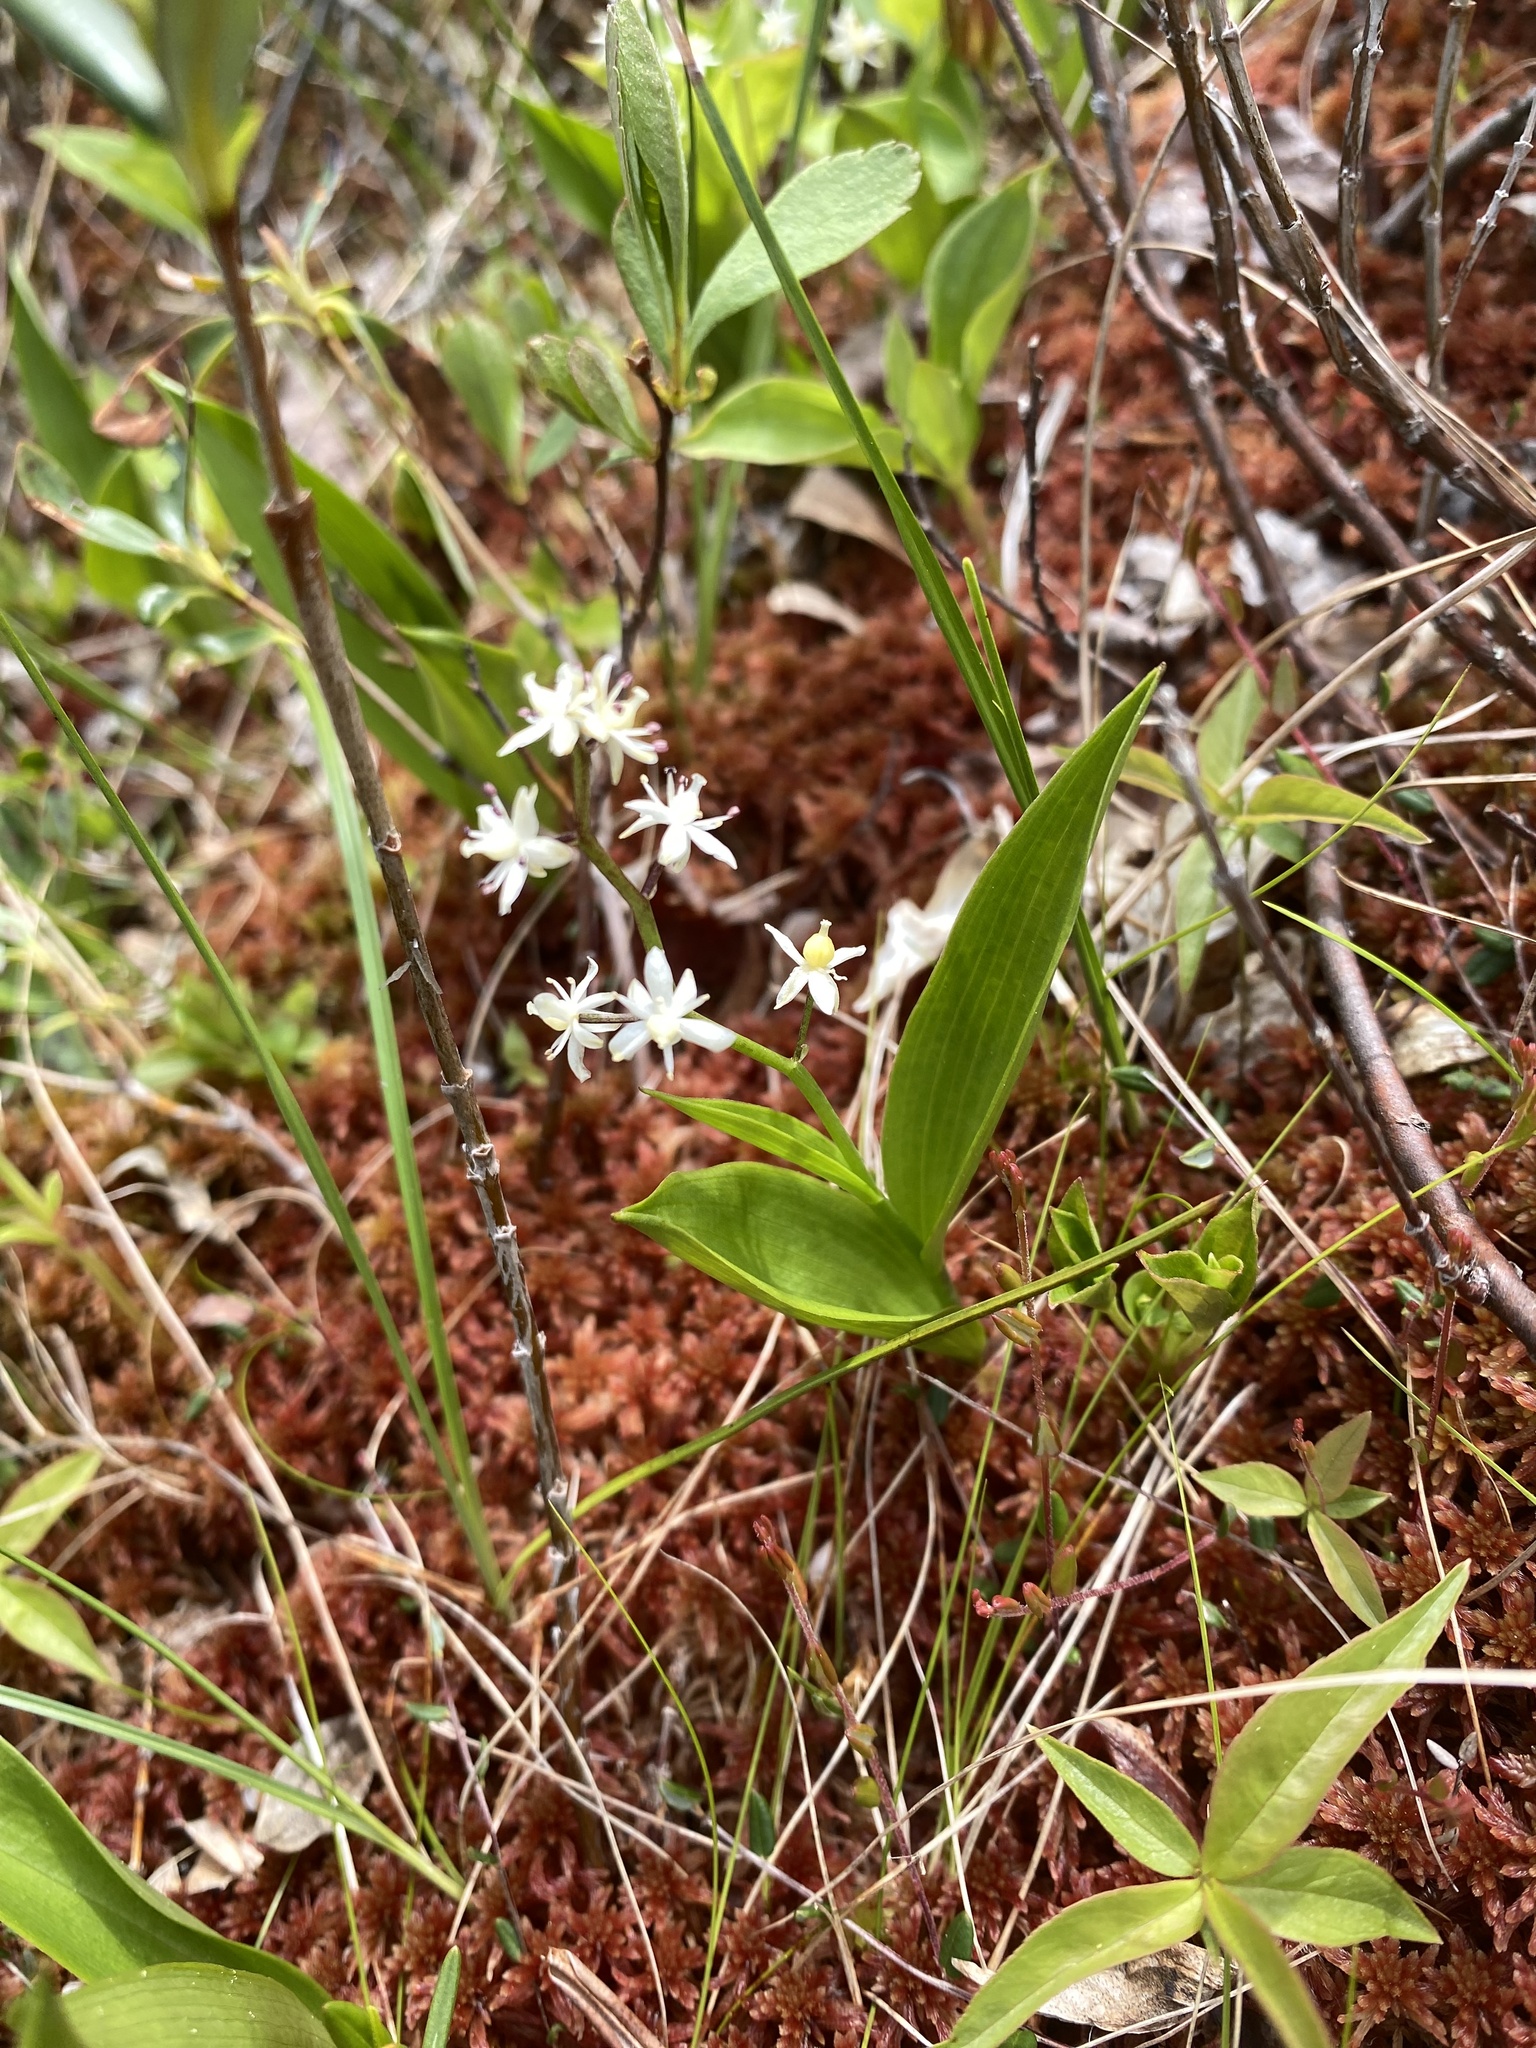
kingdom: Plantae
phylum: Tracheophyta
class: Liliopsida
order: Asparagales
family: Asparagaceae
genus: Maianthemum
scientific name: Maianthemum trifolium
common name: Swamp false solomon's seal
